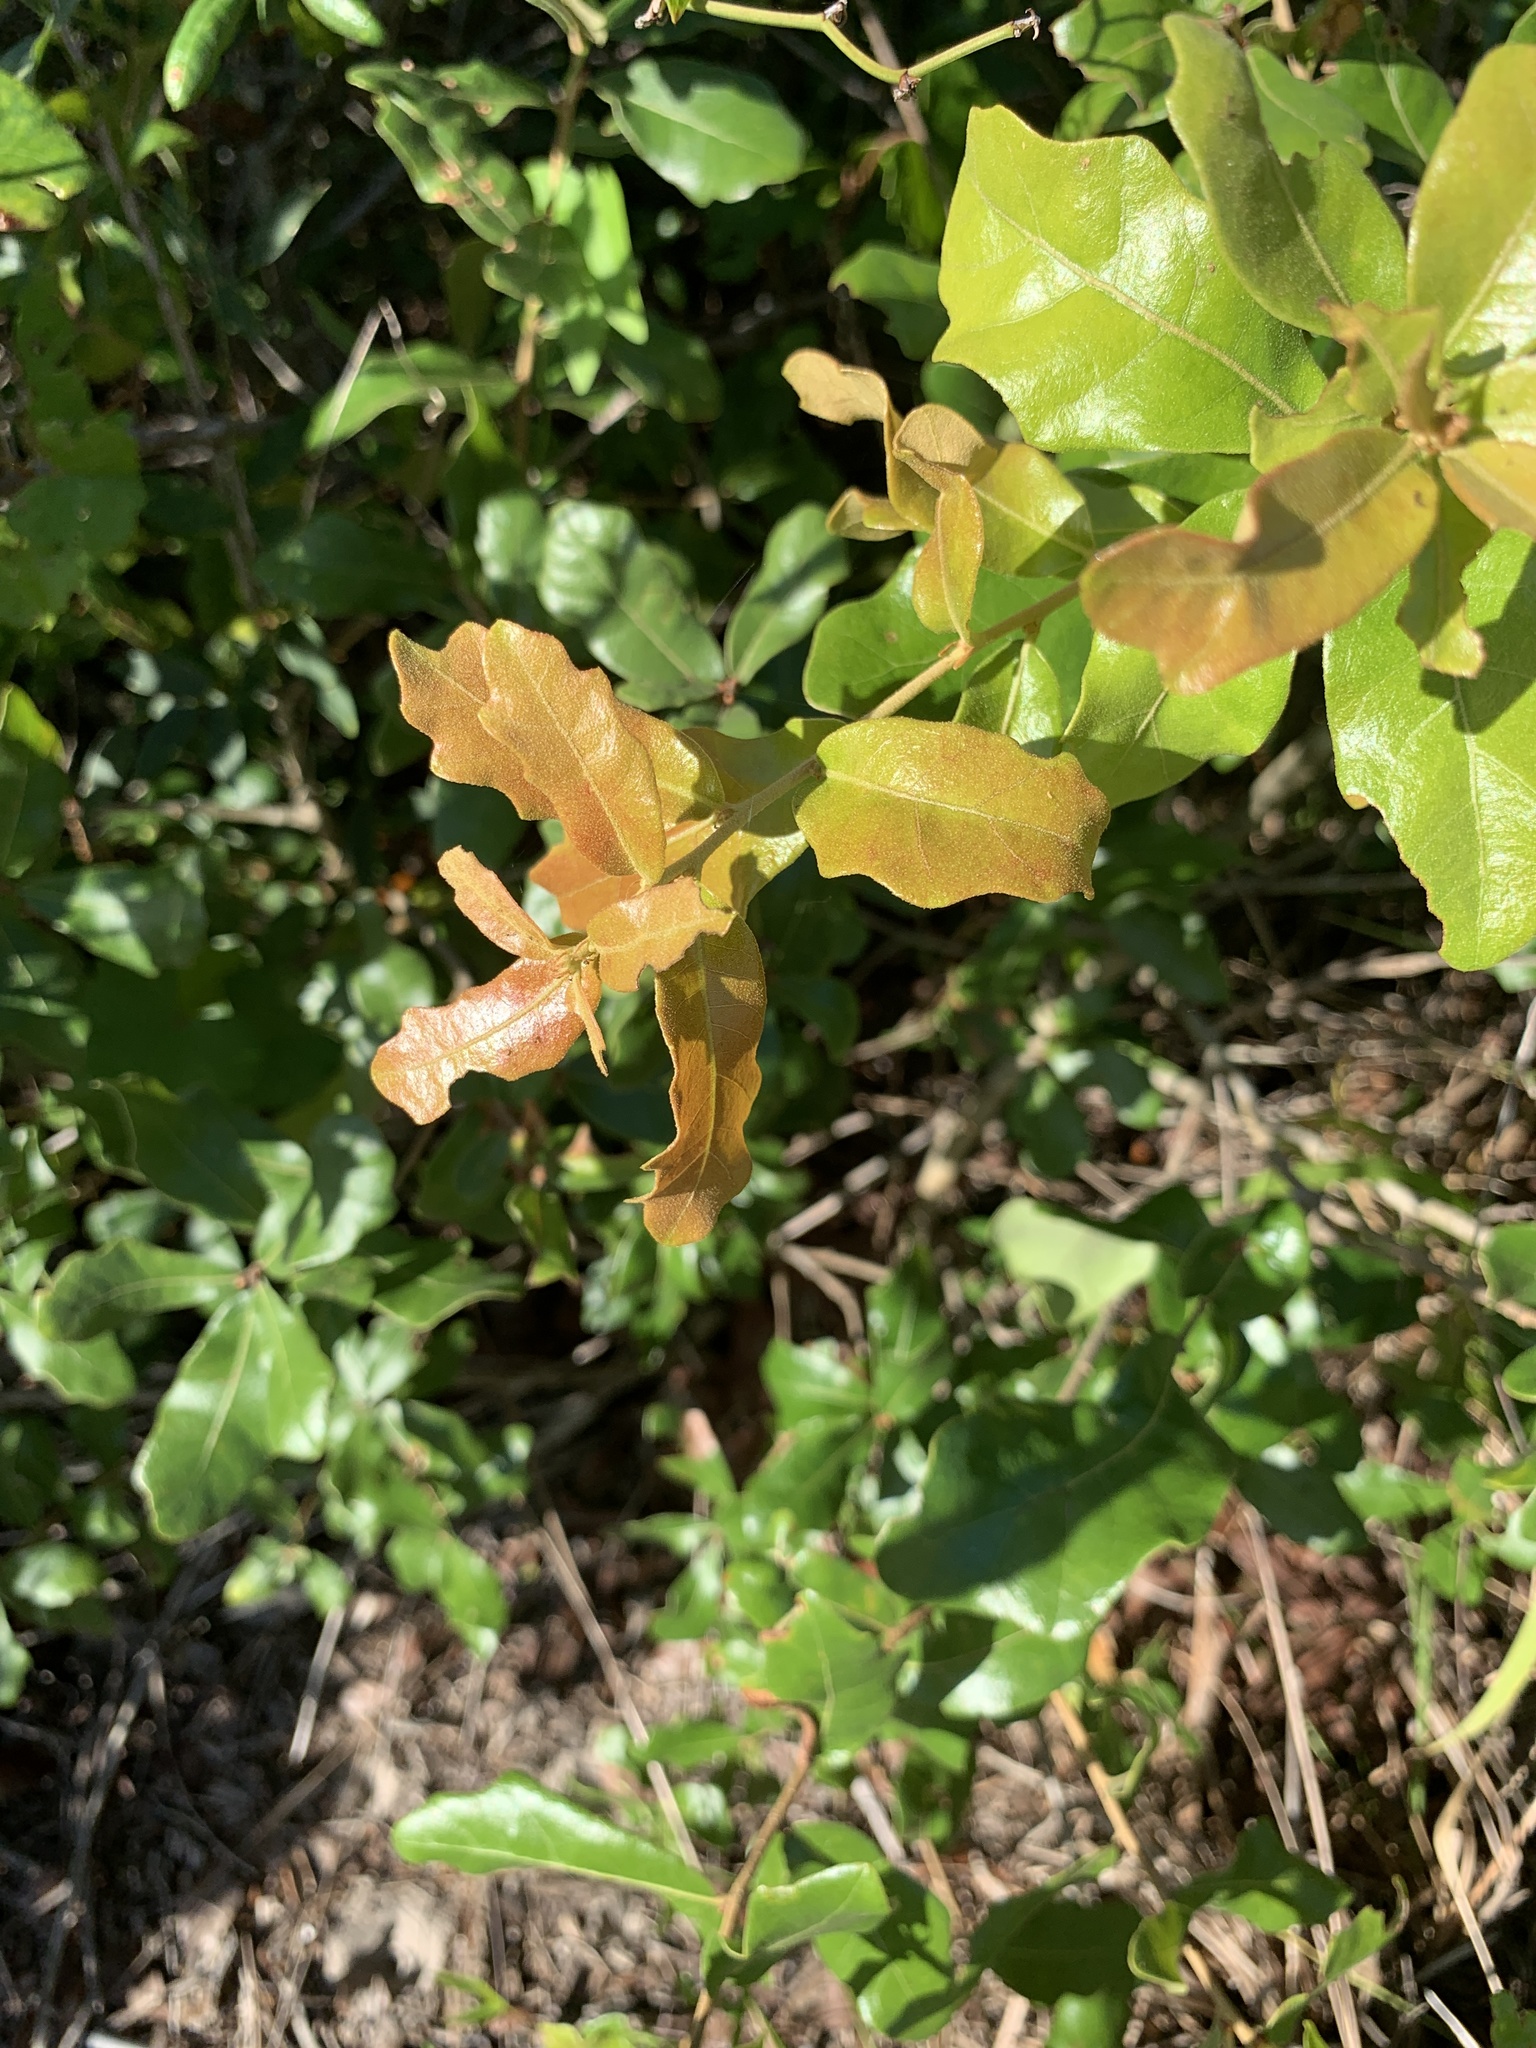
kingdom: Plantae
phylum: Tracheophyta
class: Magnoliopsida
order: Fagales
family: Fagaceae
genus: Quercus
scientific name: Quercus chapmanii
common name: Chapman oak
